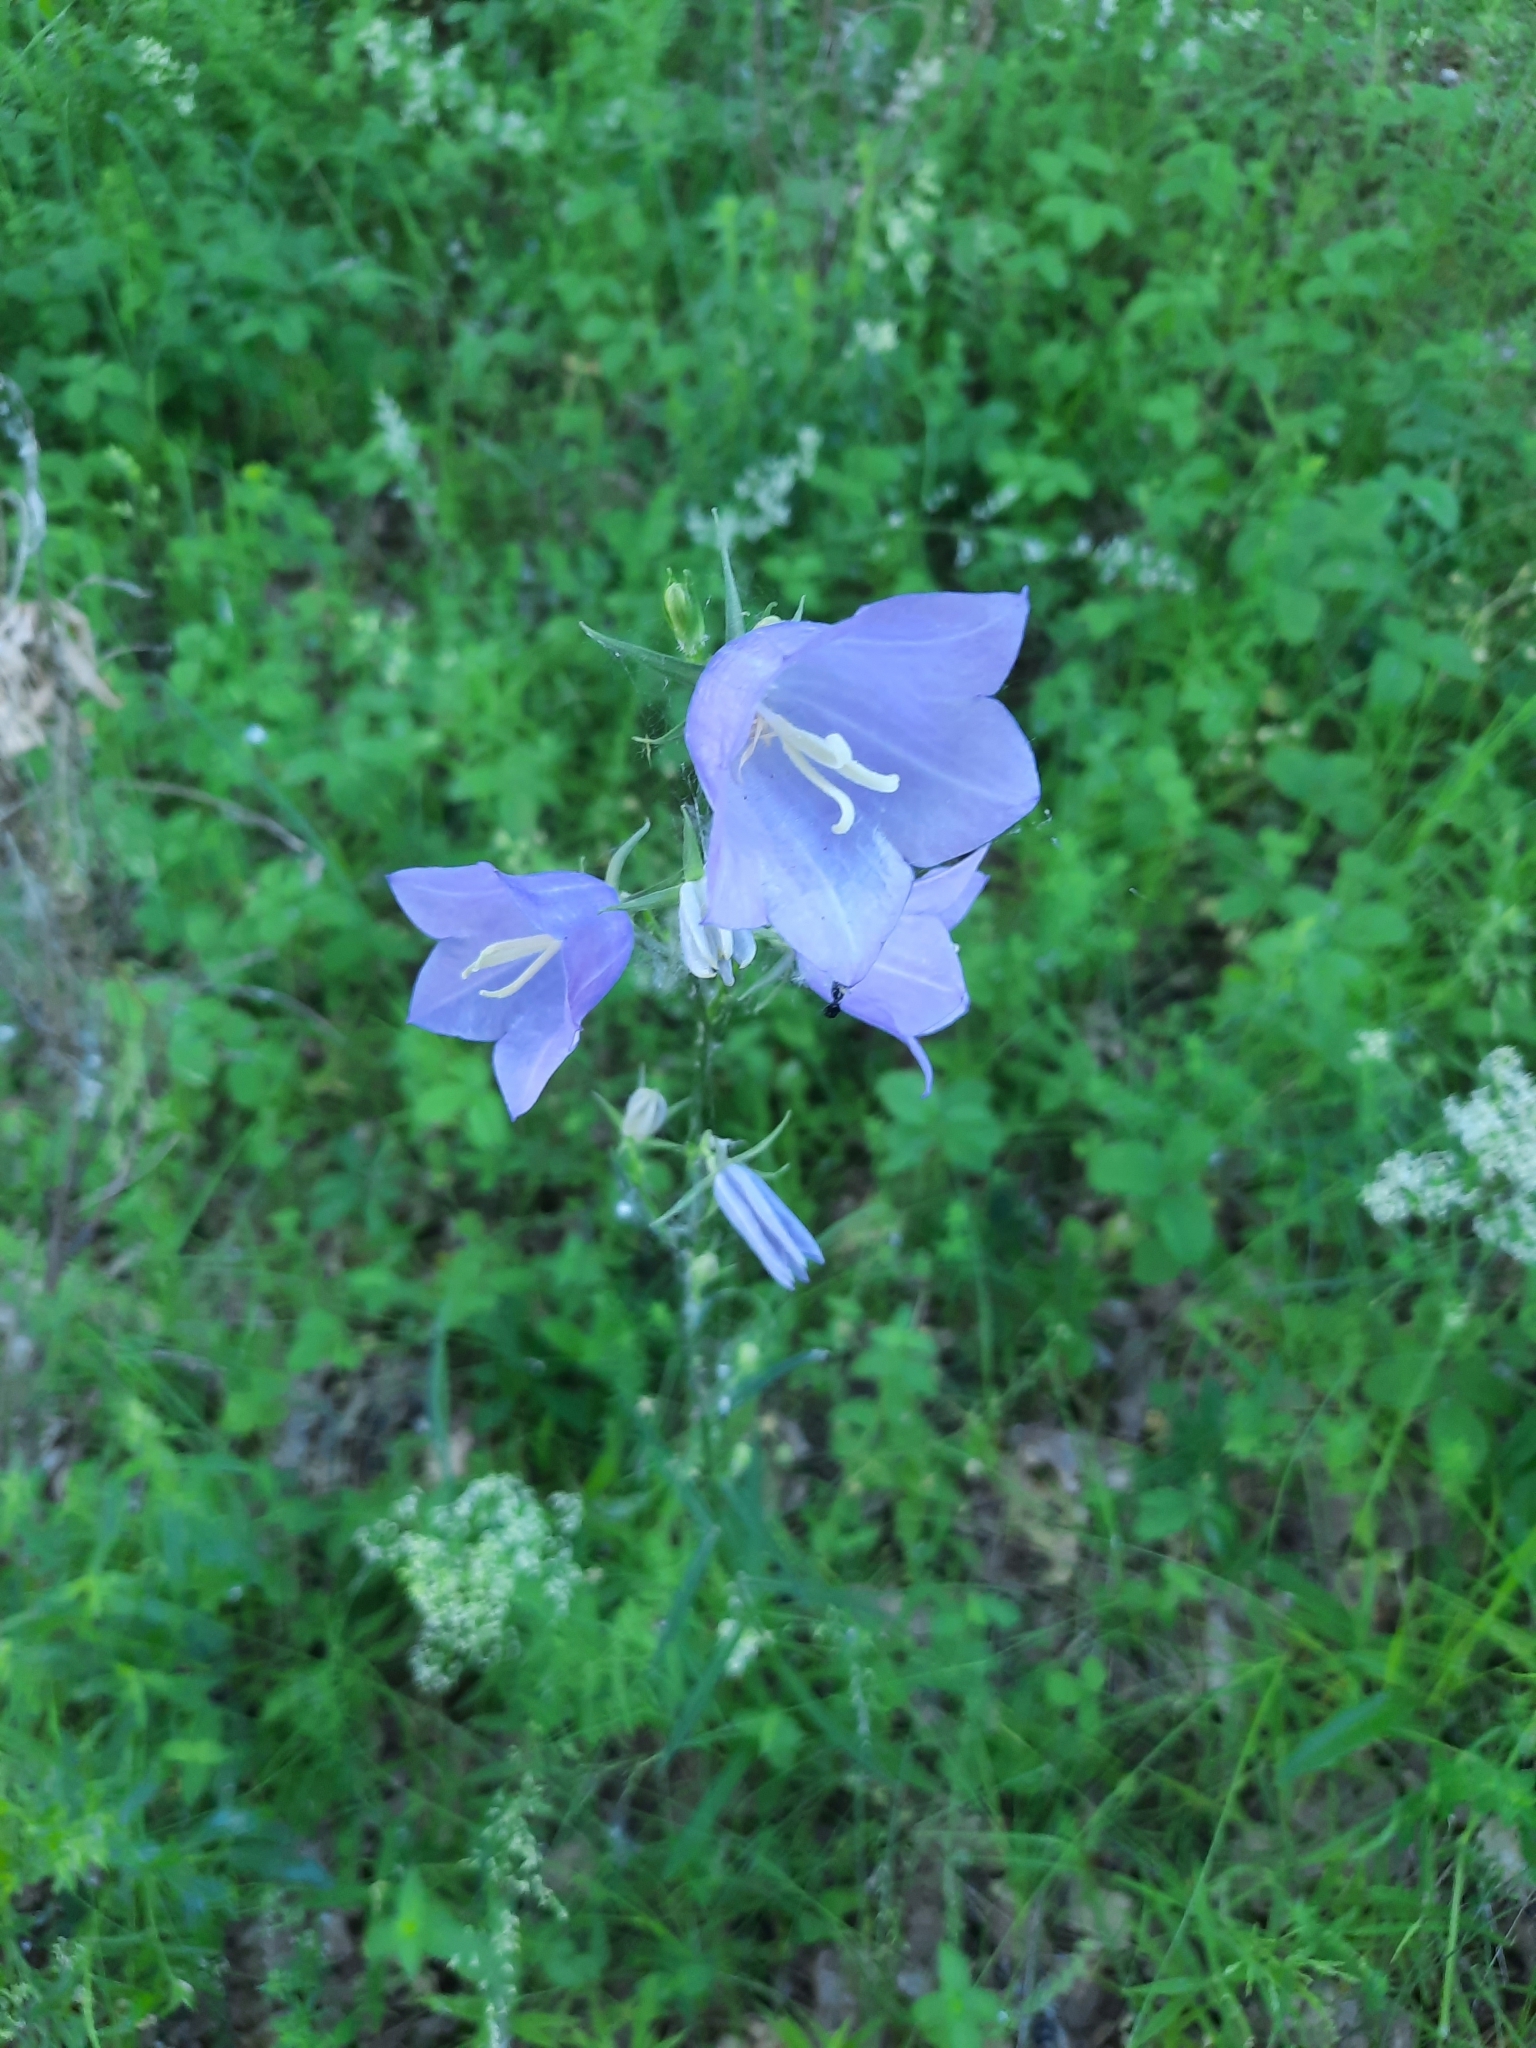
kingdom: Plantae
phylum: Tracheophyta
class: Magnoliopsida
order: Asterales
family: Campanulaceae
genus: Campanula
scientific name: Campanula persicifolia
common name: Peach-leaved bellflower
